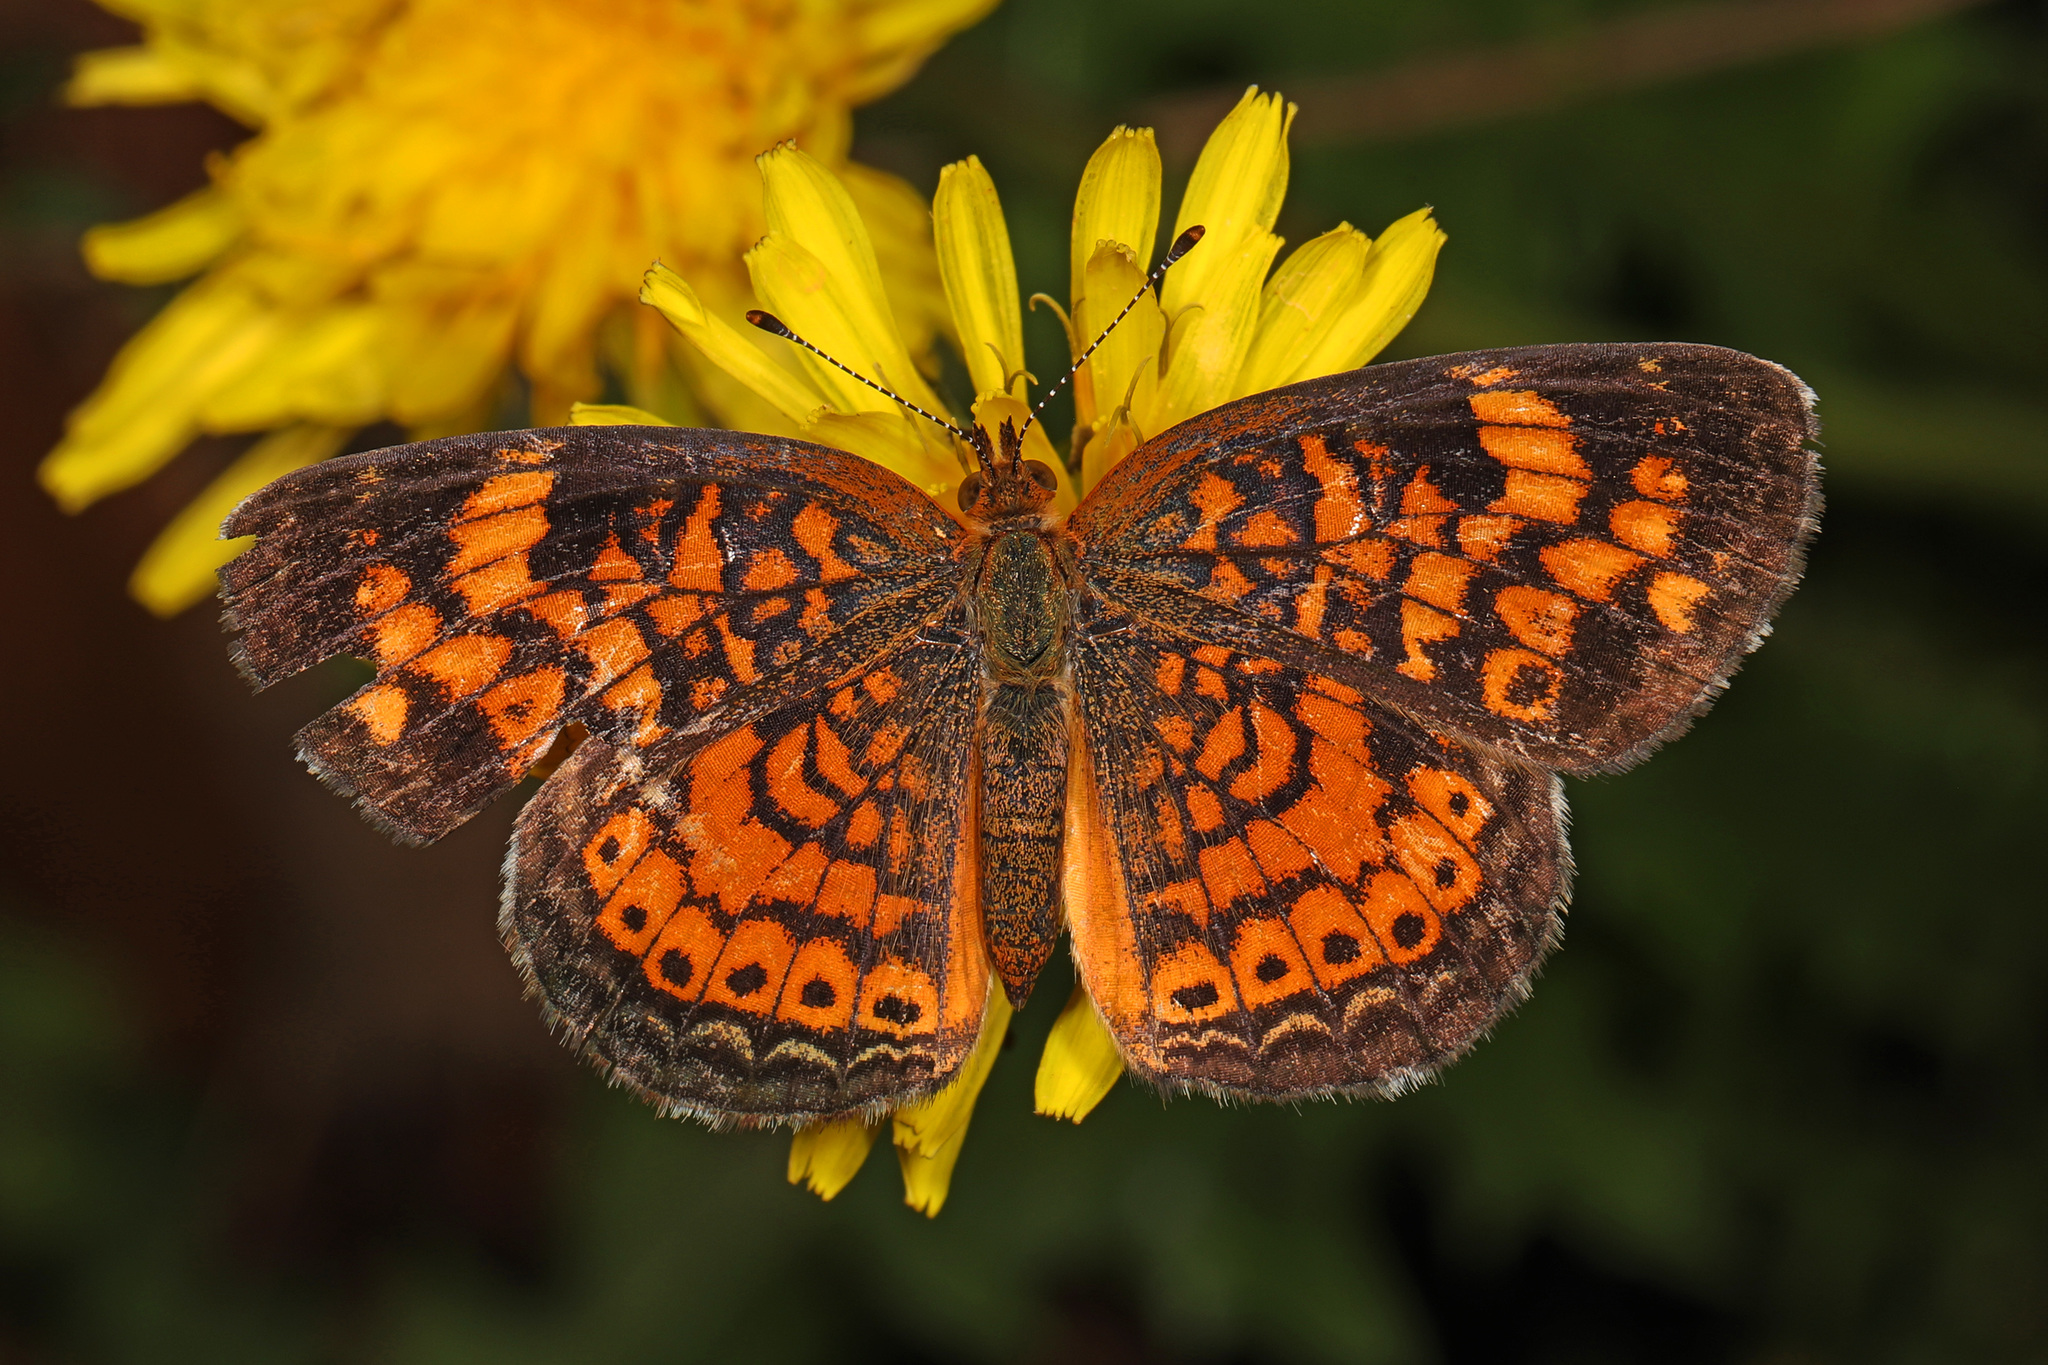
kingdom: Animalia
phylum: Arthropoda
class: Insecta
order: Lepidoptera
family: Nymphalidae
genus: Phyciodes
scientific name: Phyciodes tharos
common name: Pearl crescent
